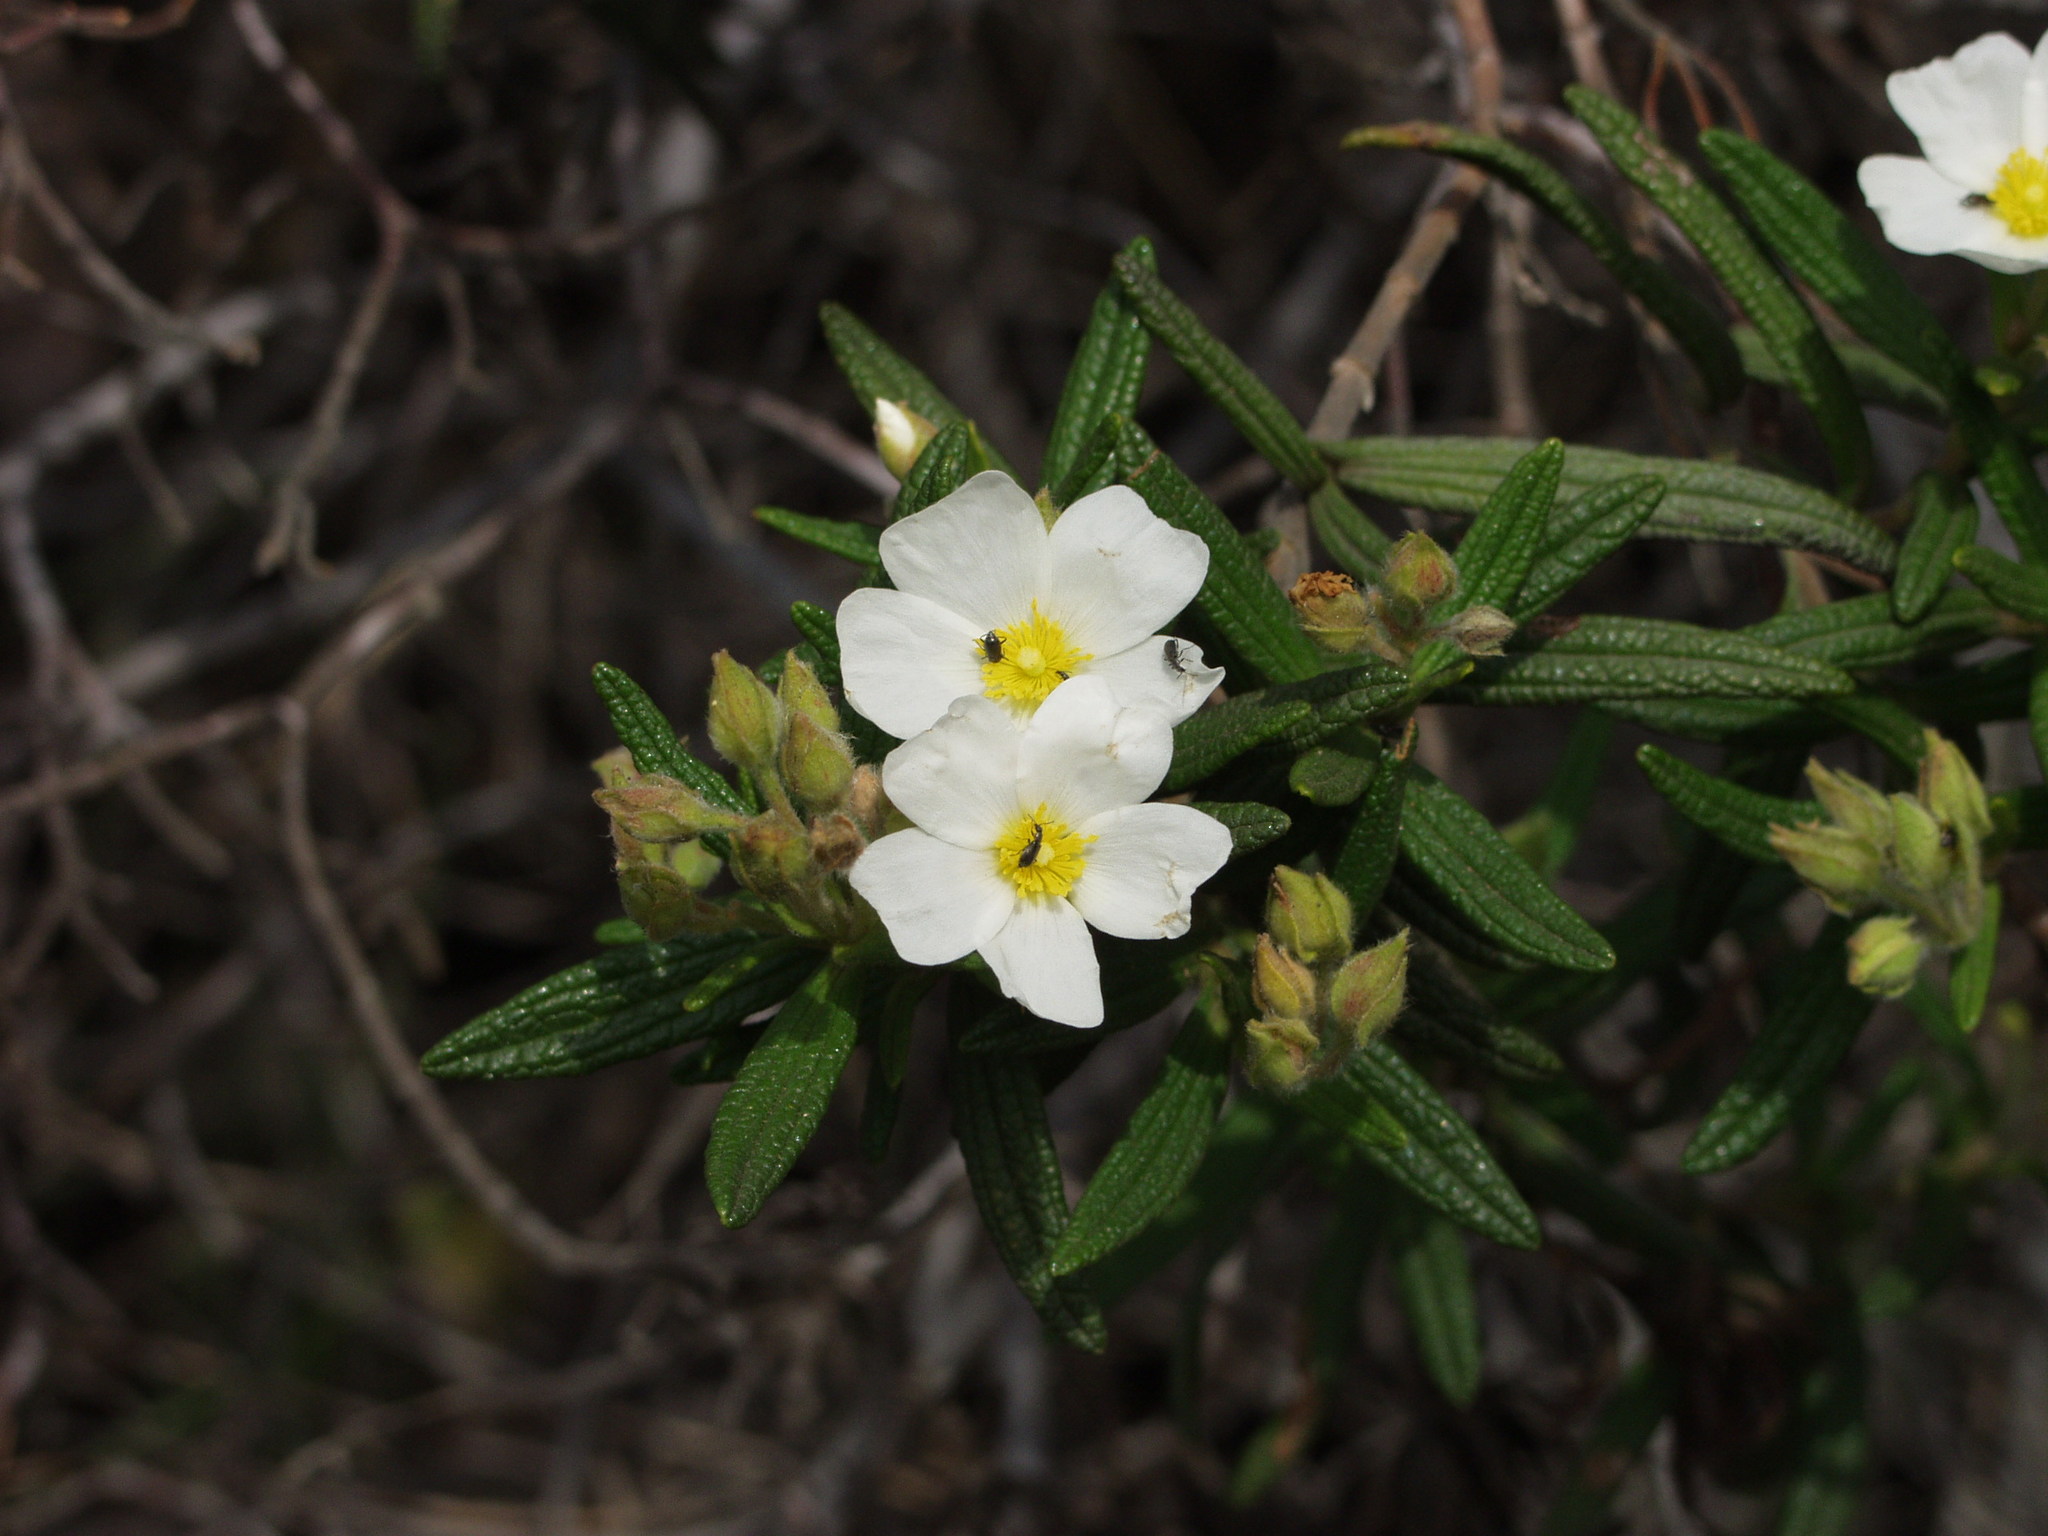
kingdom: Plantae
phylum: Tracheophyta
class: Magnoliopsida
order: Malvales
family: Cistaceae
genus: Cistus
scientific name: Cistus monspeliensis
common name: Montpelier cistus
